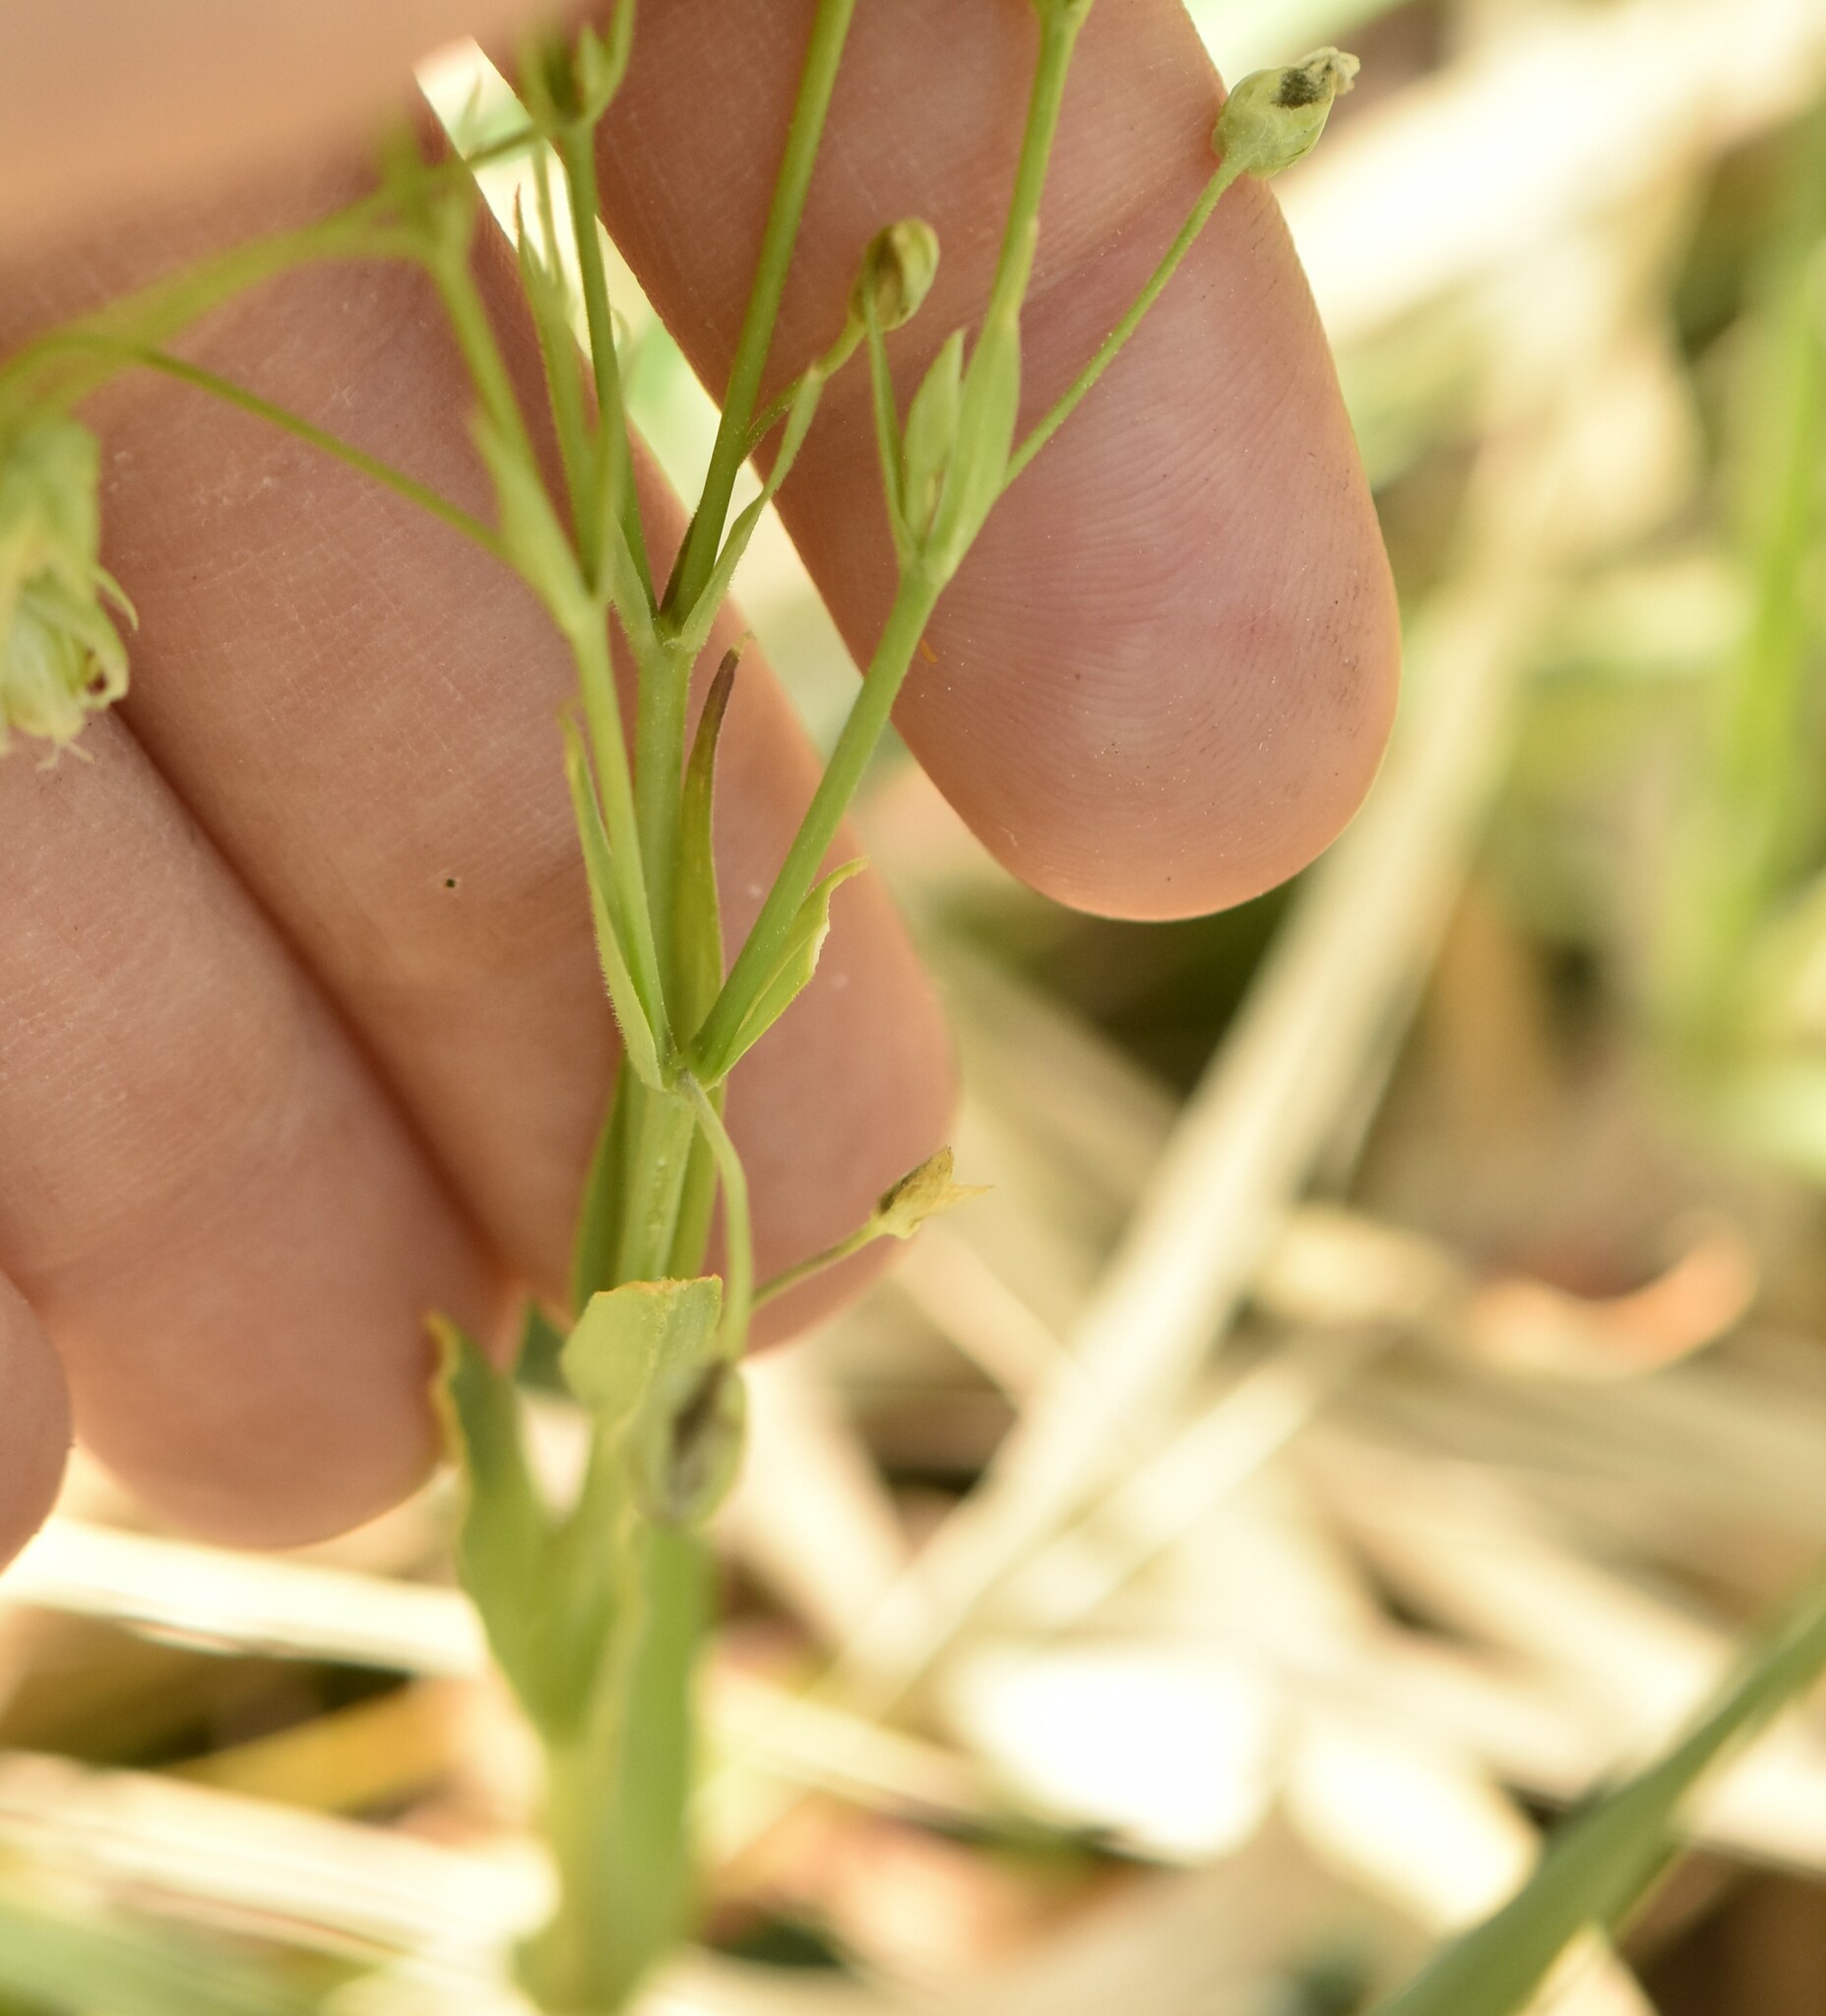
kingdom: Plantae
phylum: Tracheophyta
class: Magnoliopsida
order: Caryophyllales
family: Caryophyllaceae
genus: Rabelera
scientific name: Rabelera holostea
